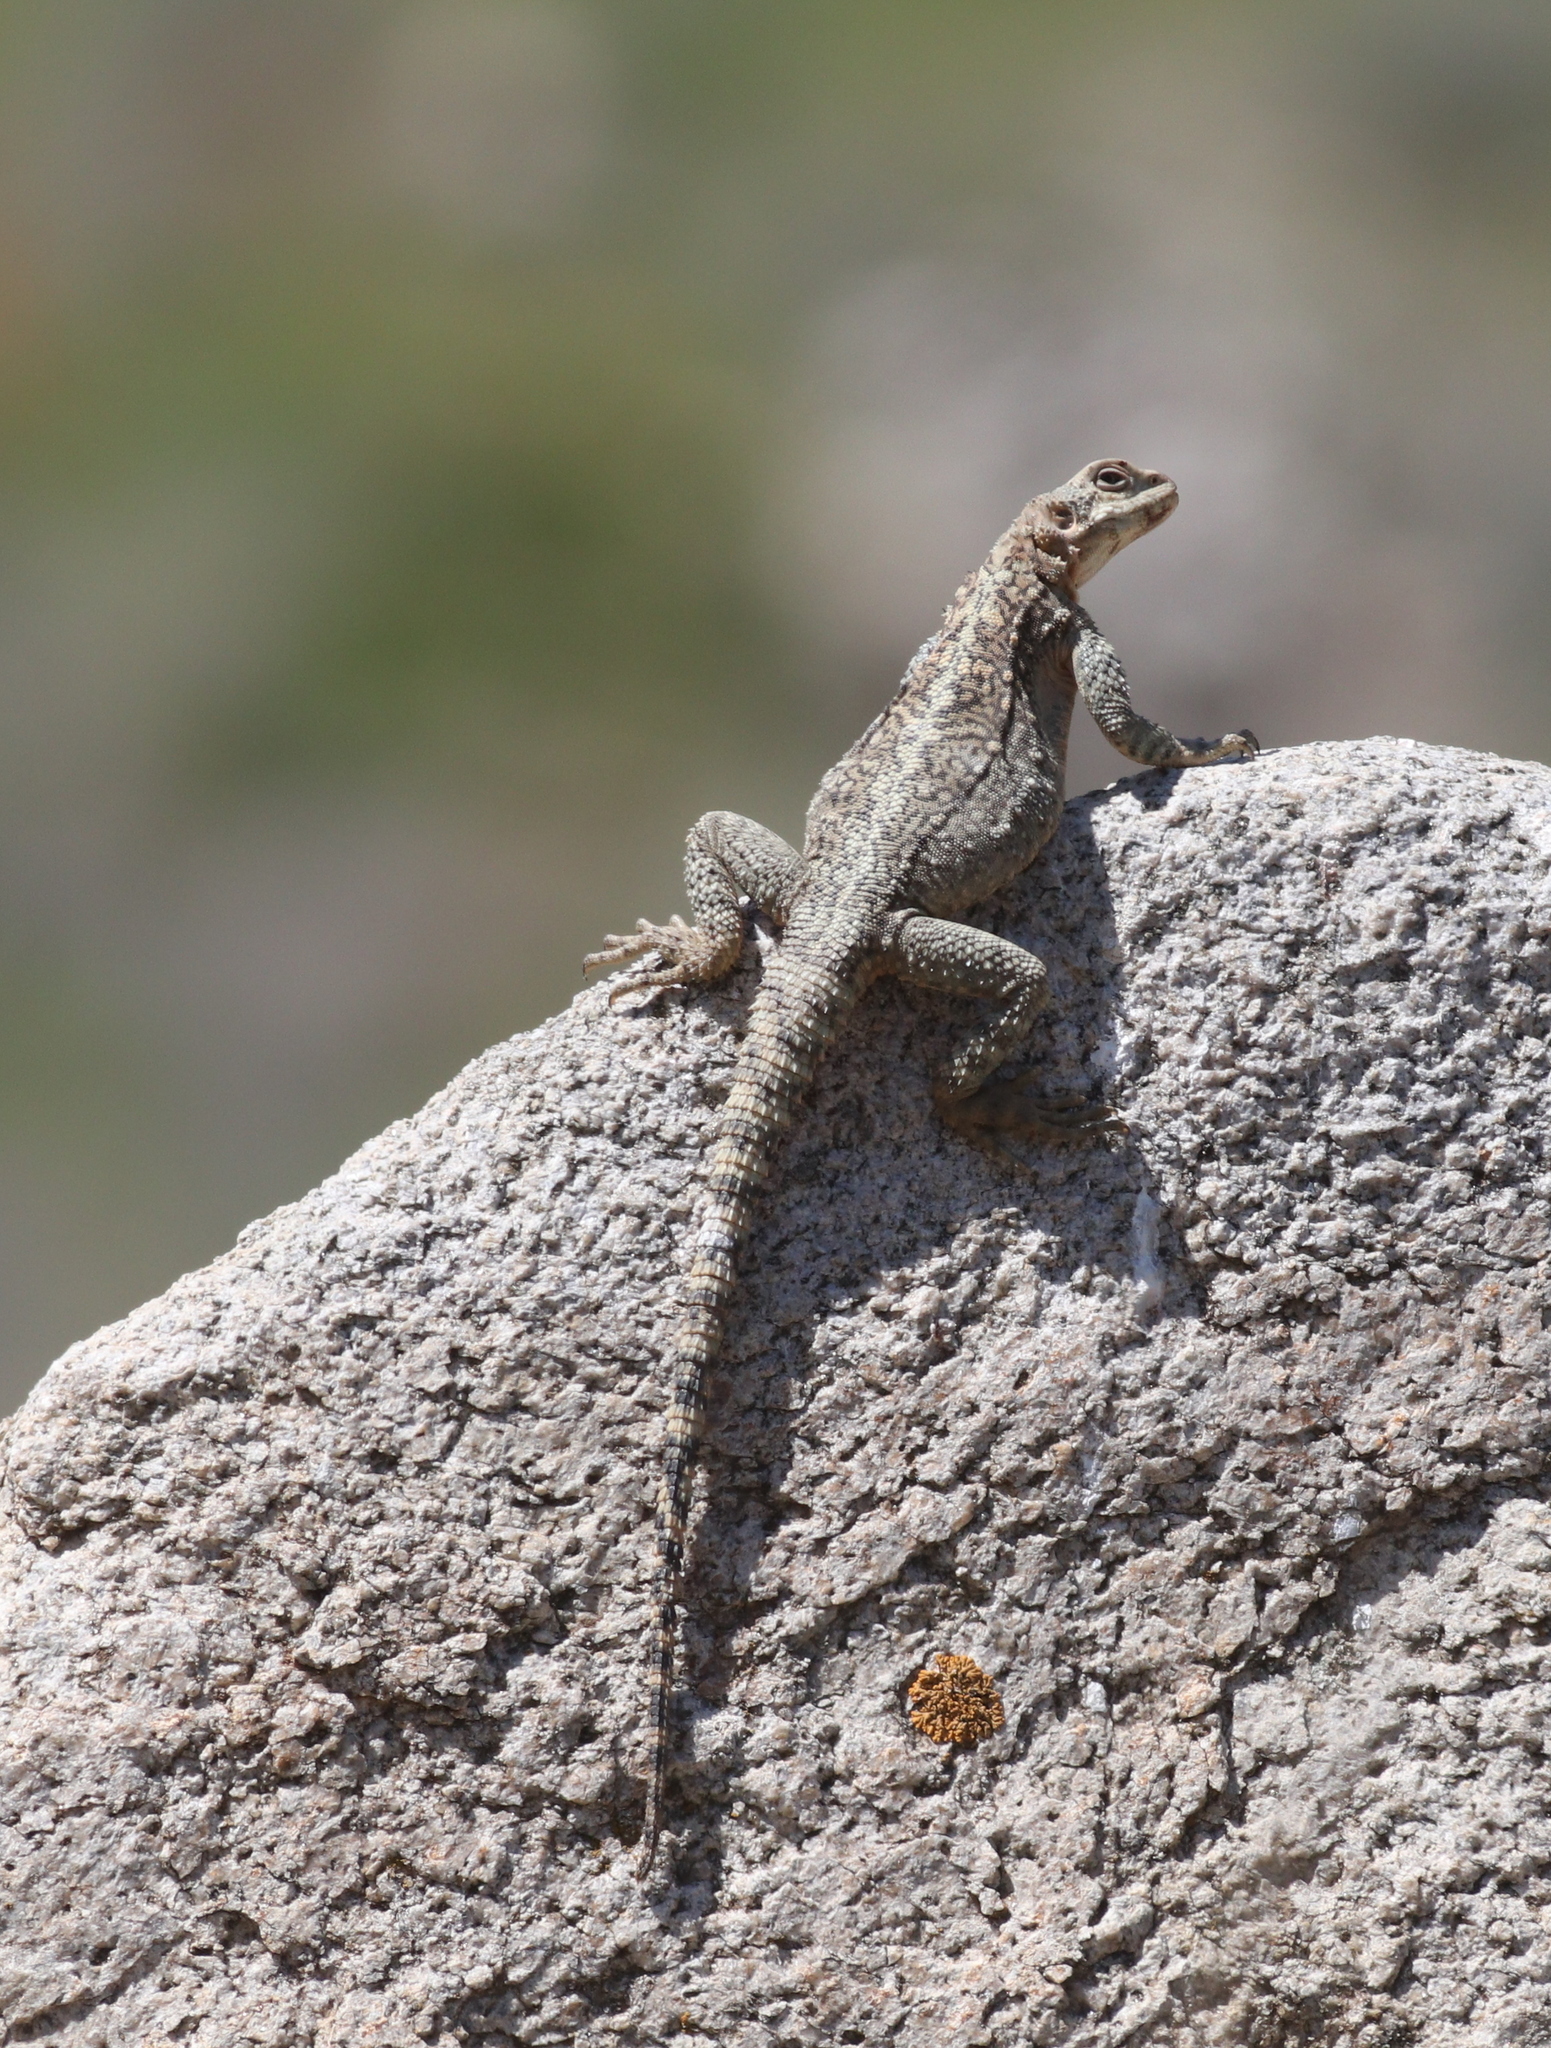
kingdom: Animalia
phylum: Chordata
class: Squamata
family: Agamidae
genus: Paralaudakia
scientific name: Paralaudakia caucasia
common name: Caucasian agama
